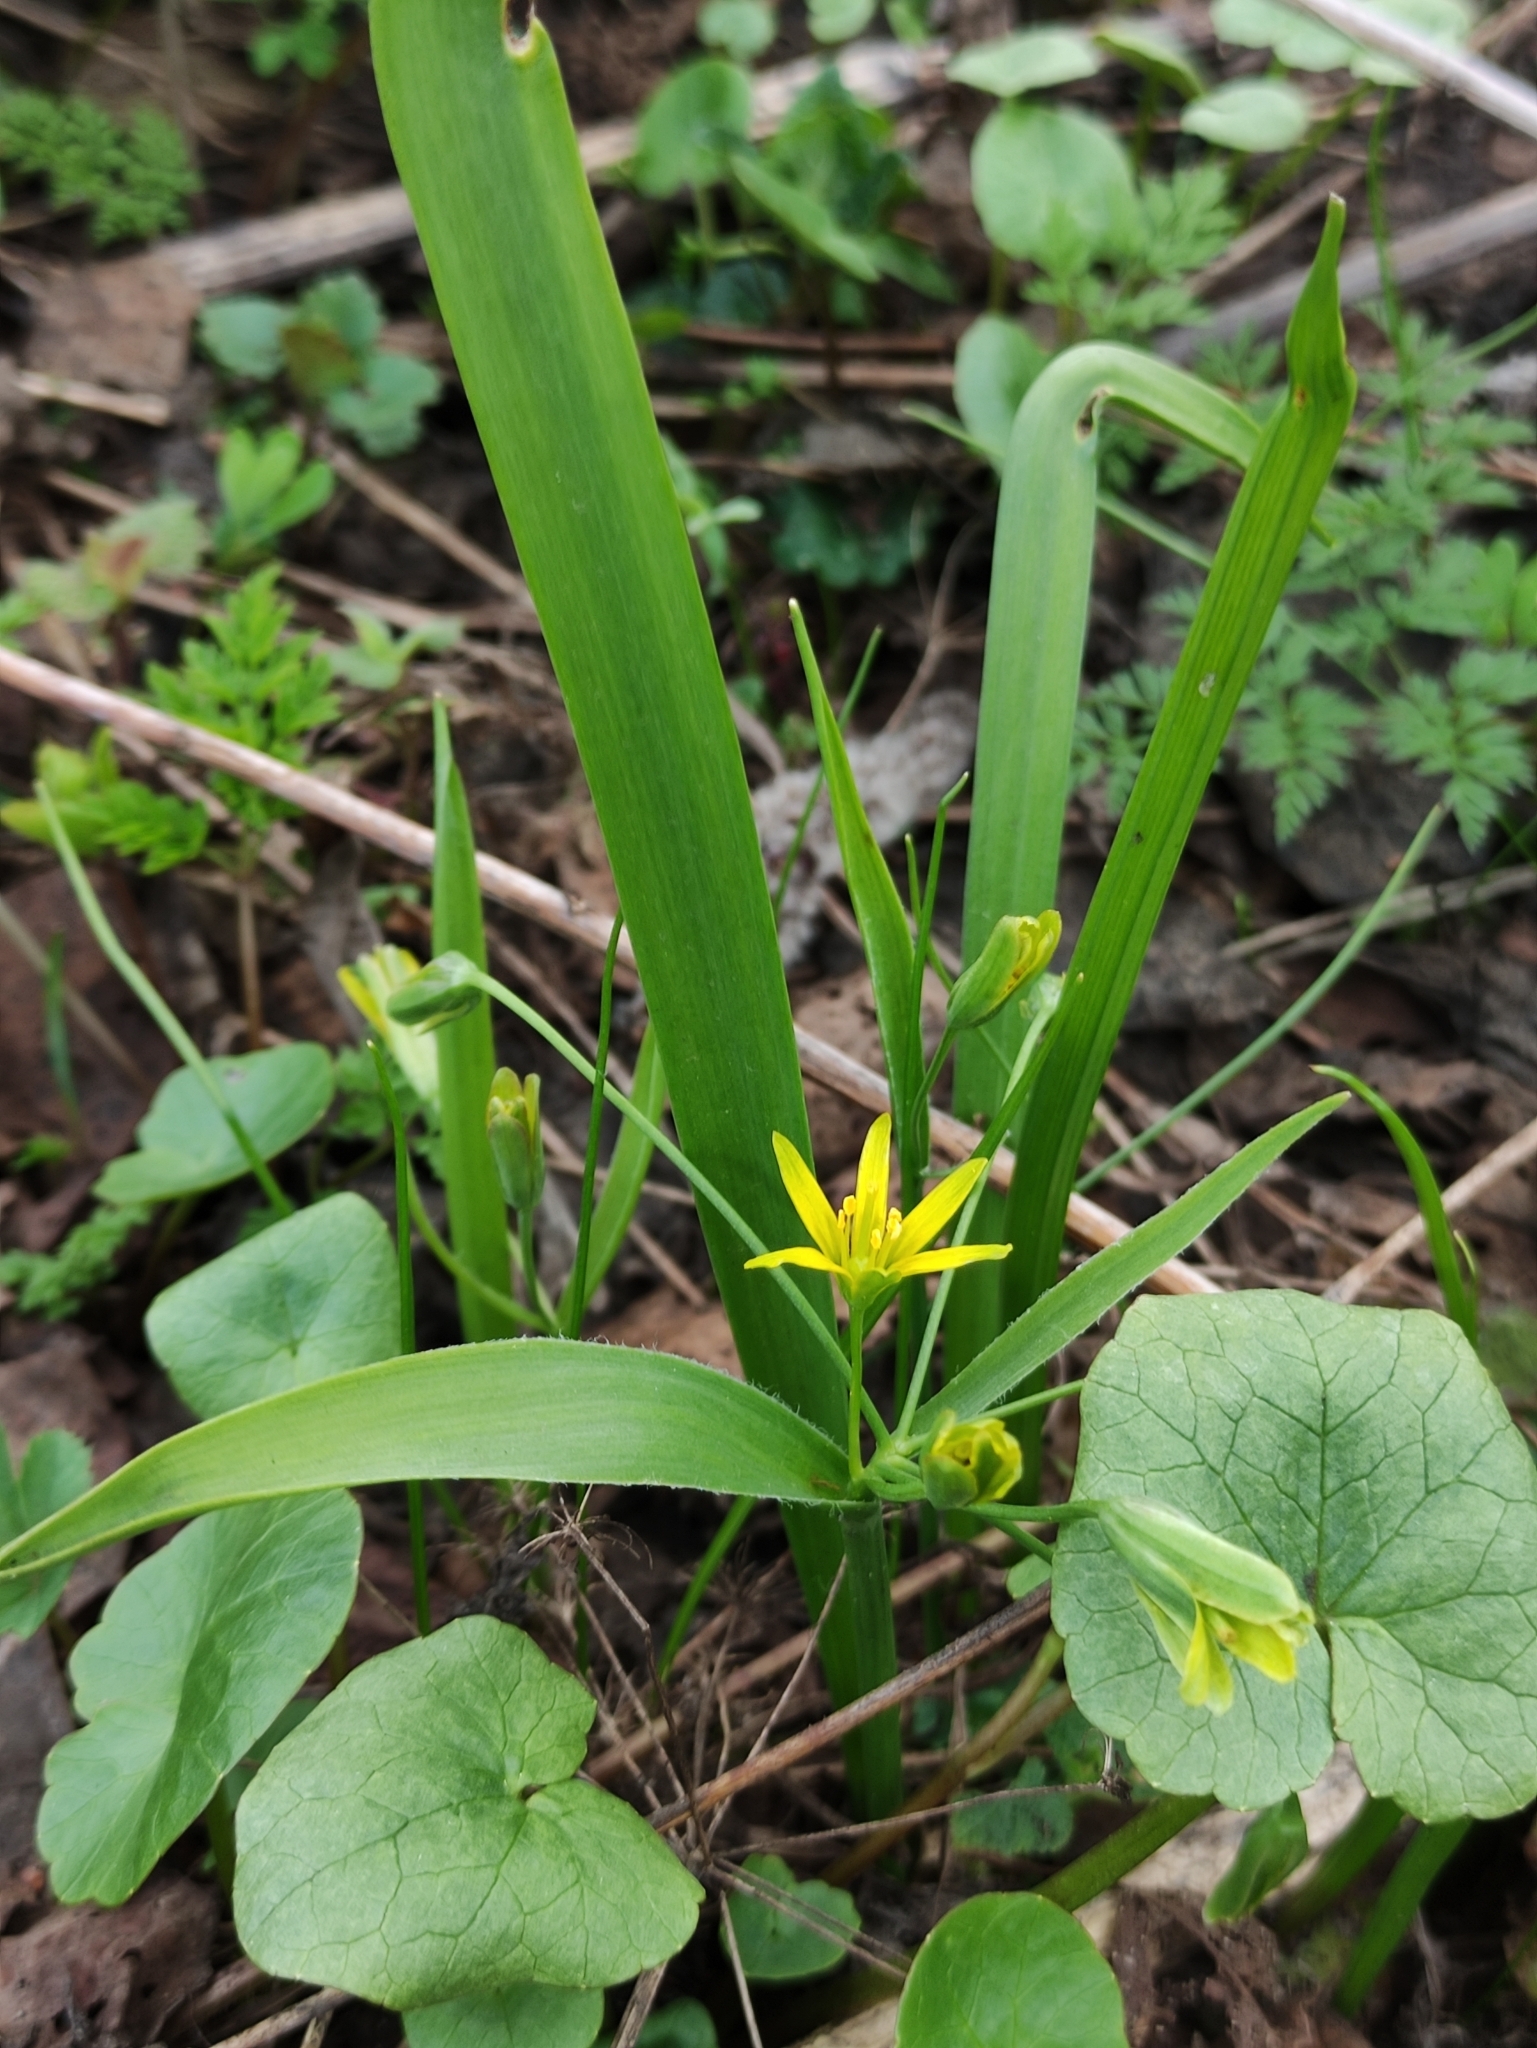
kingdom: Plantae
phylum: Tracheophyta
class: Liliopsida
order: Liliales
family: Liliaceae
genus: Gagea
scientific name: Gagea lutea
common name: Yellow star-of-bethlehem
